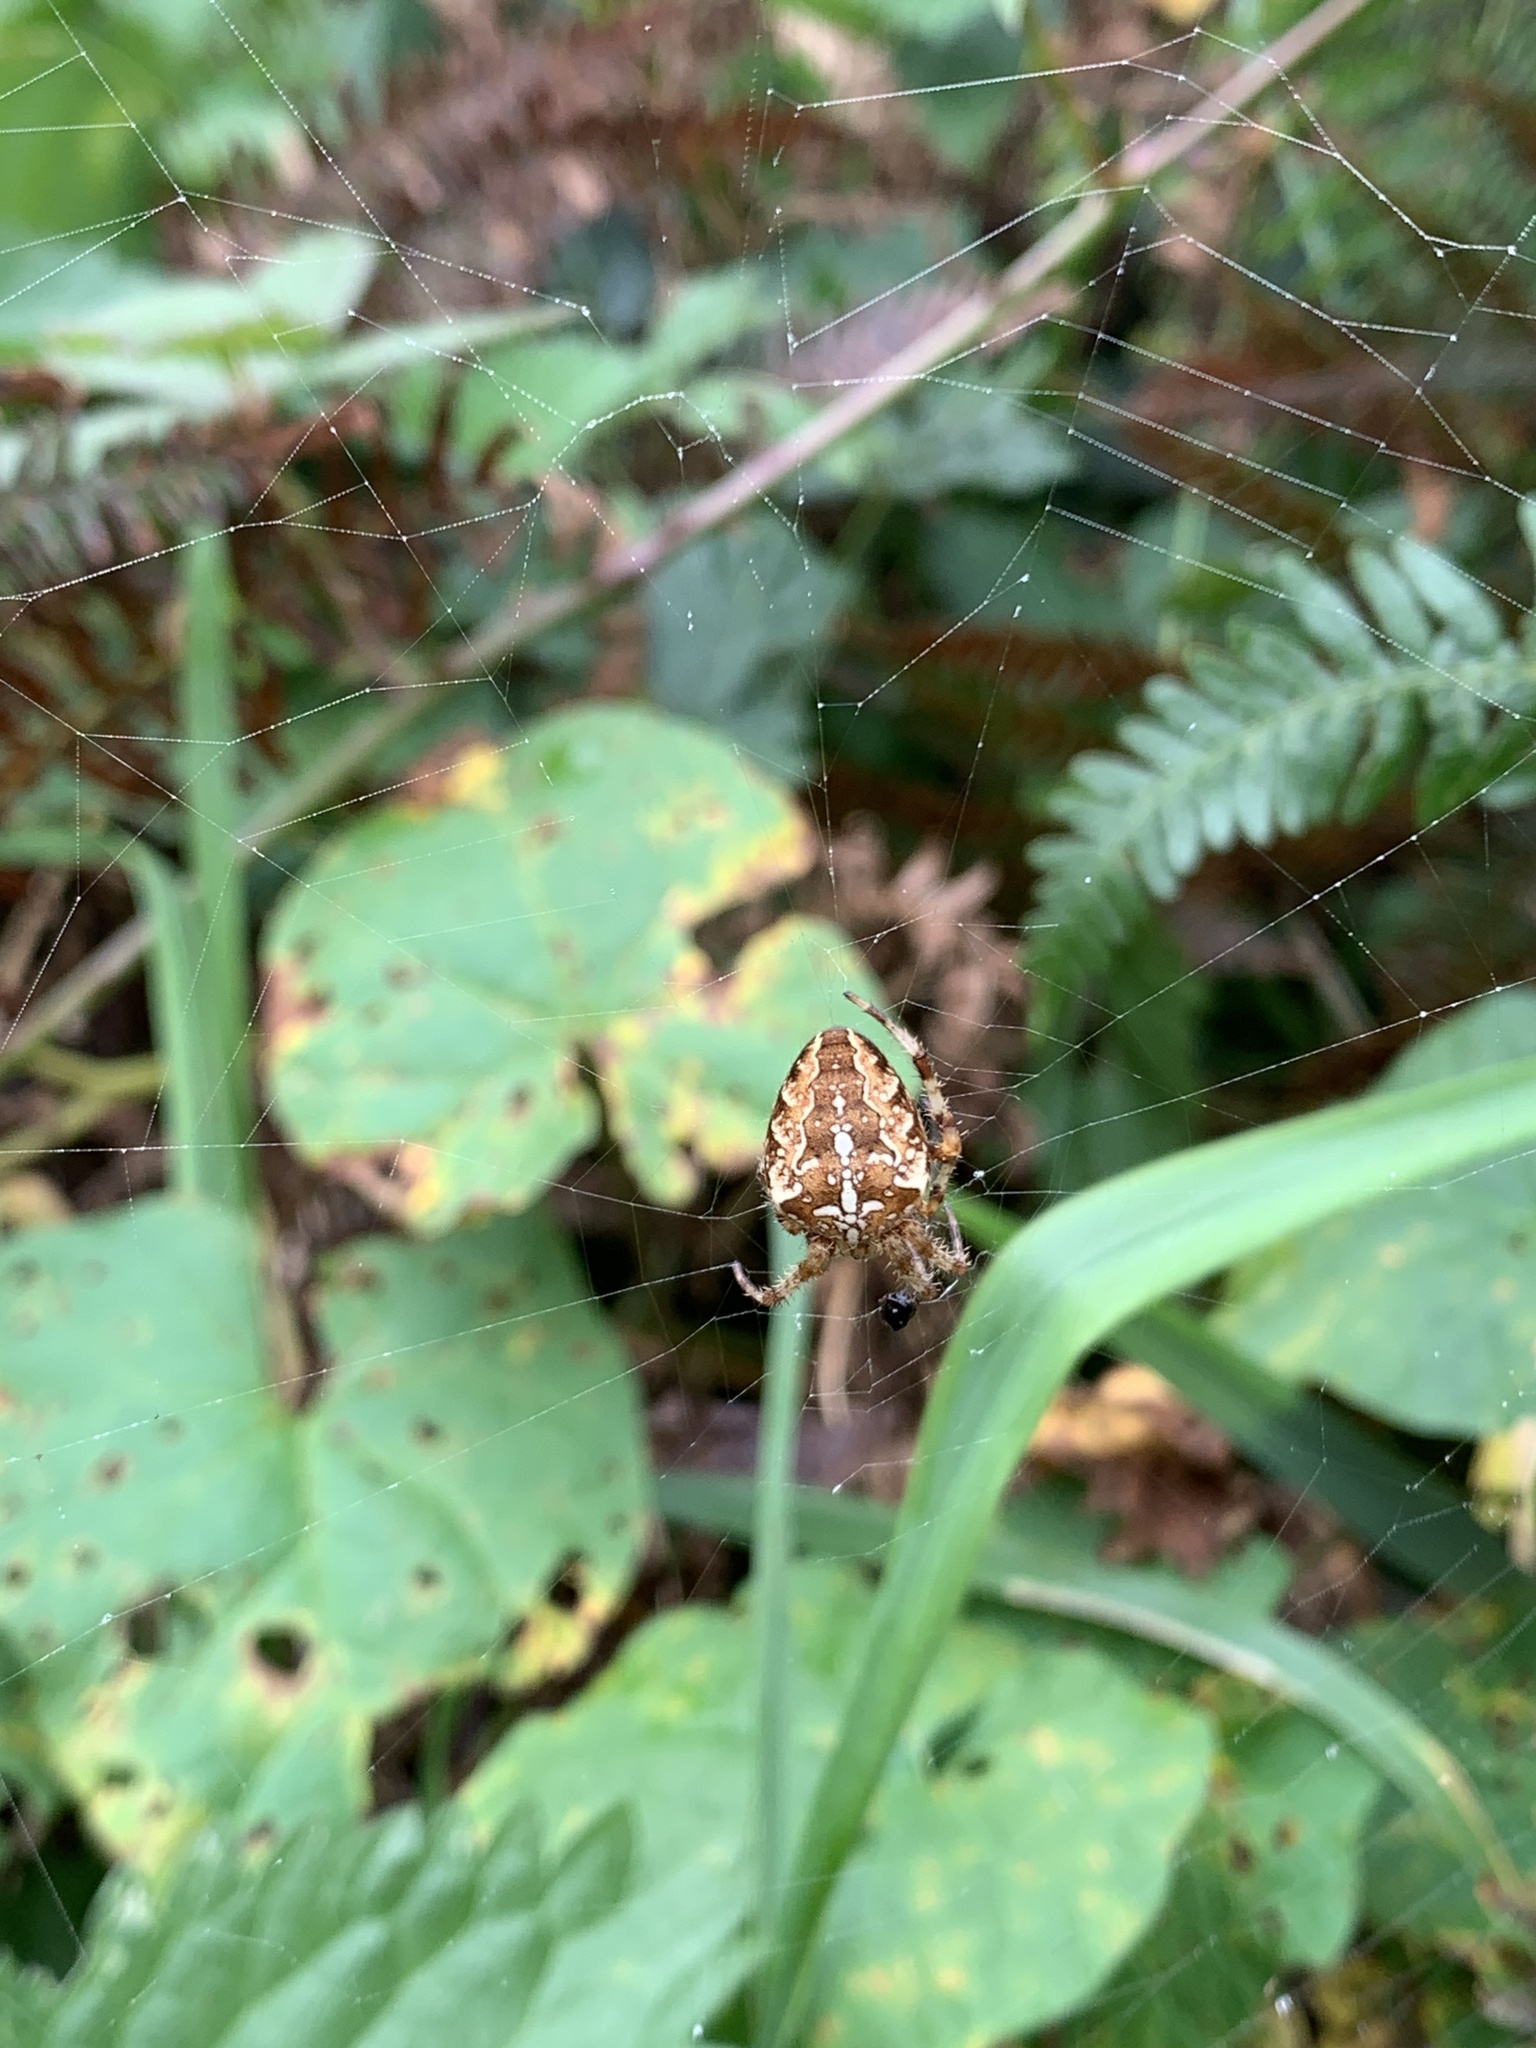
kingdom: Animalia
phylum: Arthropoda
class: Arachnida
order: Araneae
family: Araneidae
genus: Araneus
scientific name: Araneus diadematus
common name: Cross orbweaver
